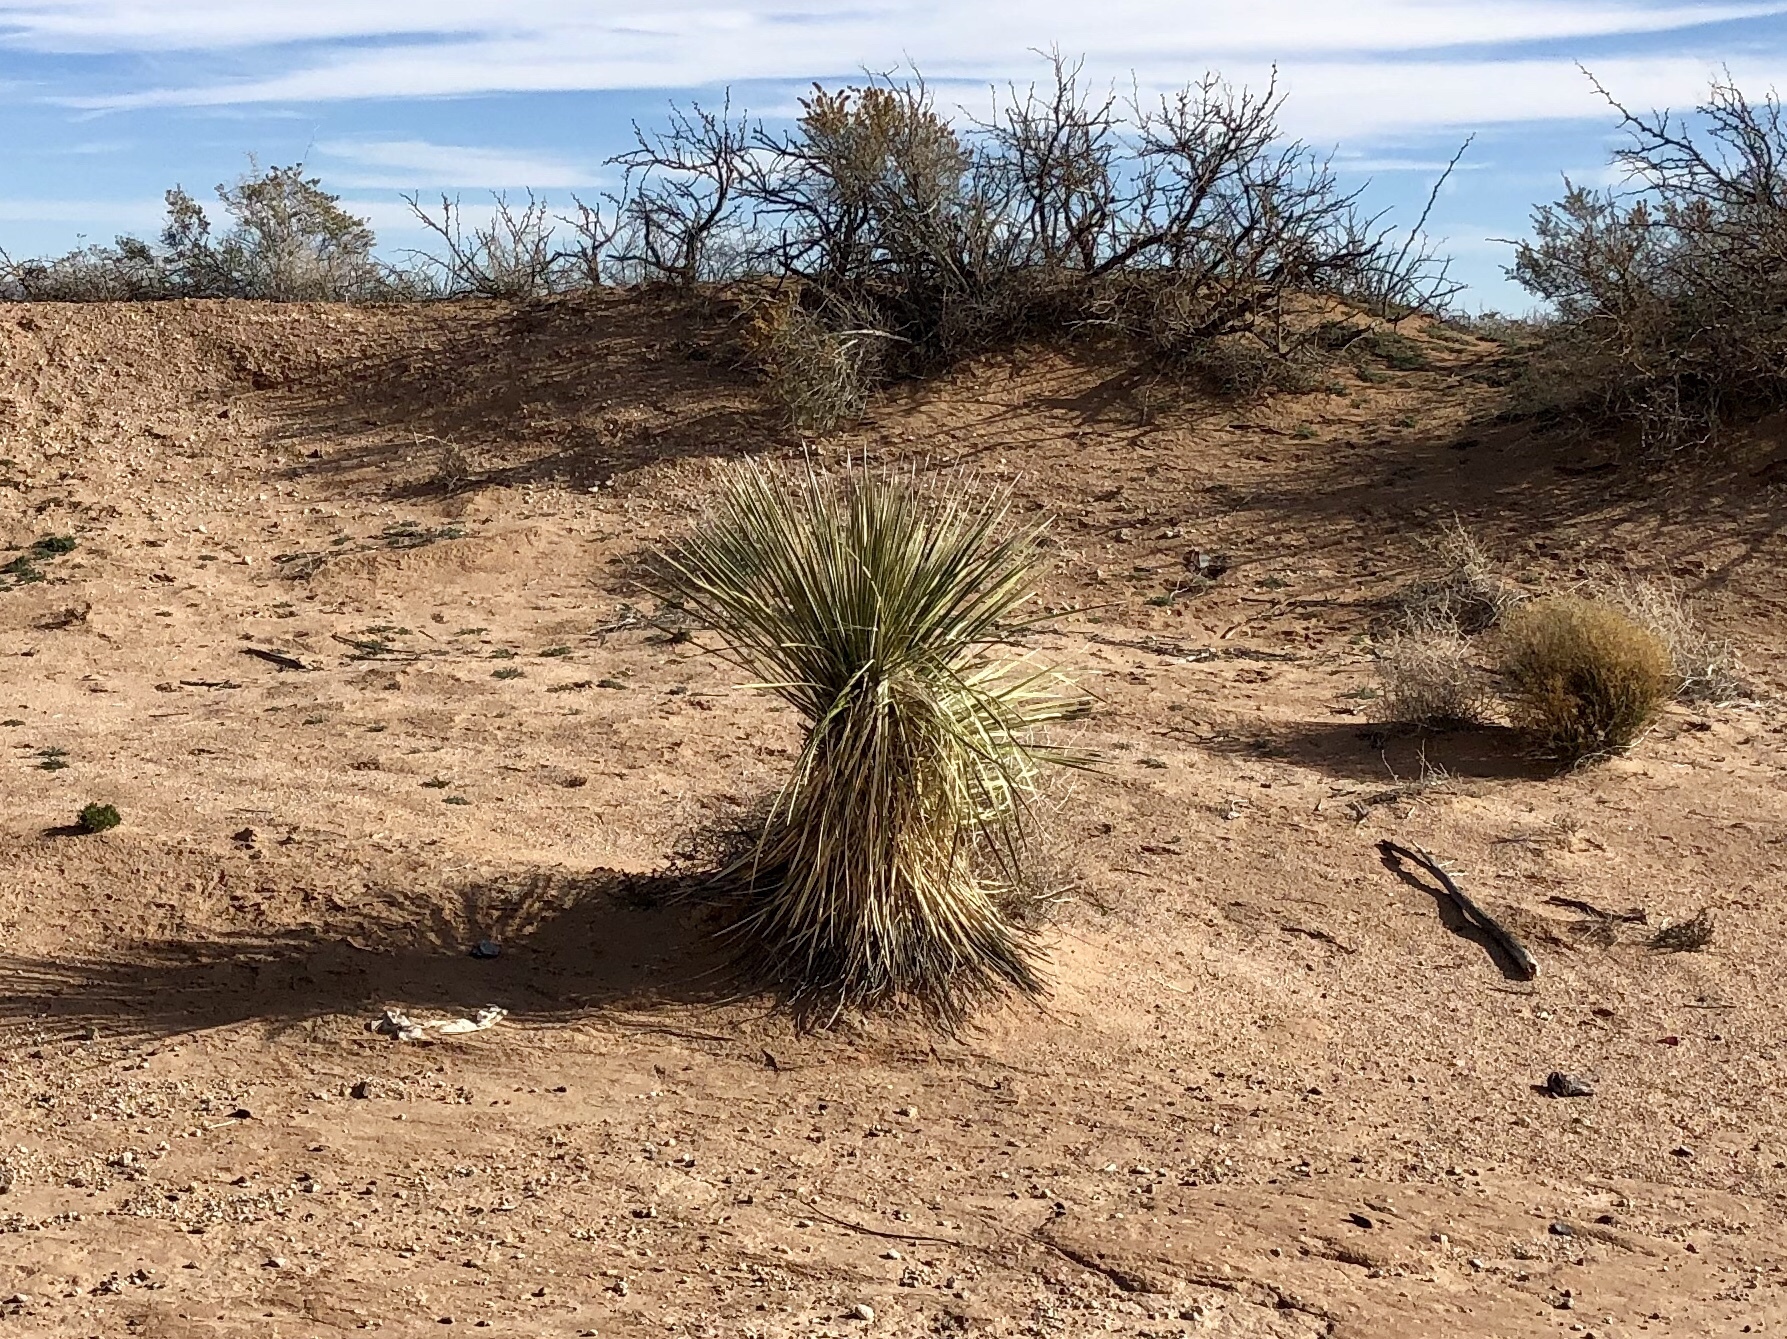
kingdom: Plantae
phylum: Tracheophyta
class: Liliopsida
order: Asparagales
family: Asparagaceae
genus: Yucca
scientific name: Yucca elata
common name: Palmella
